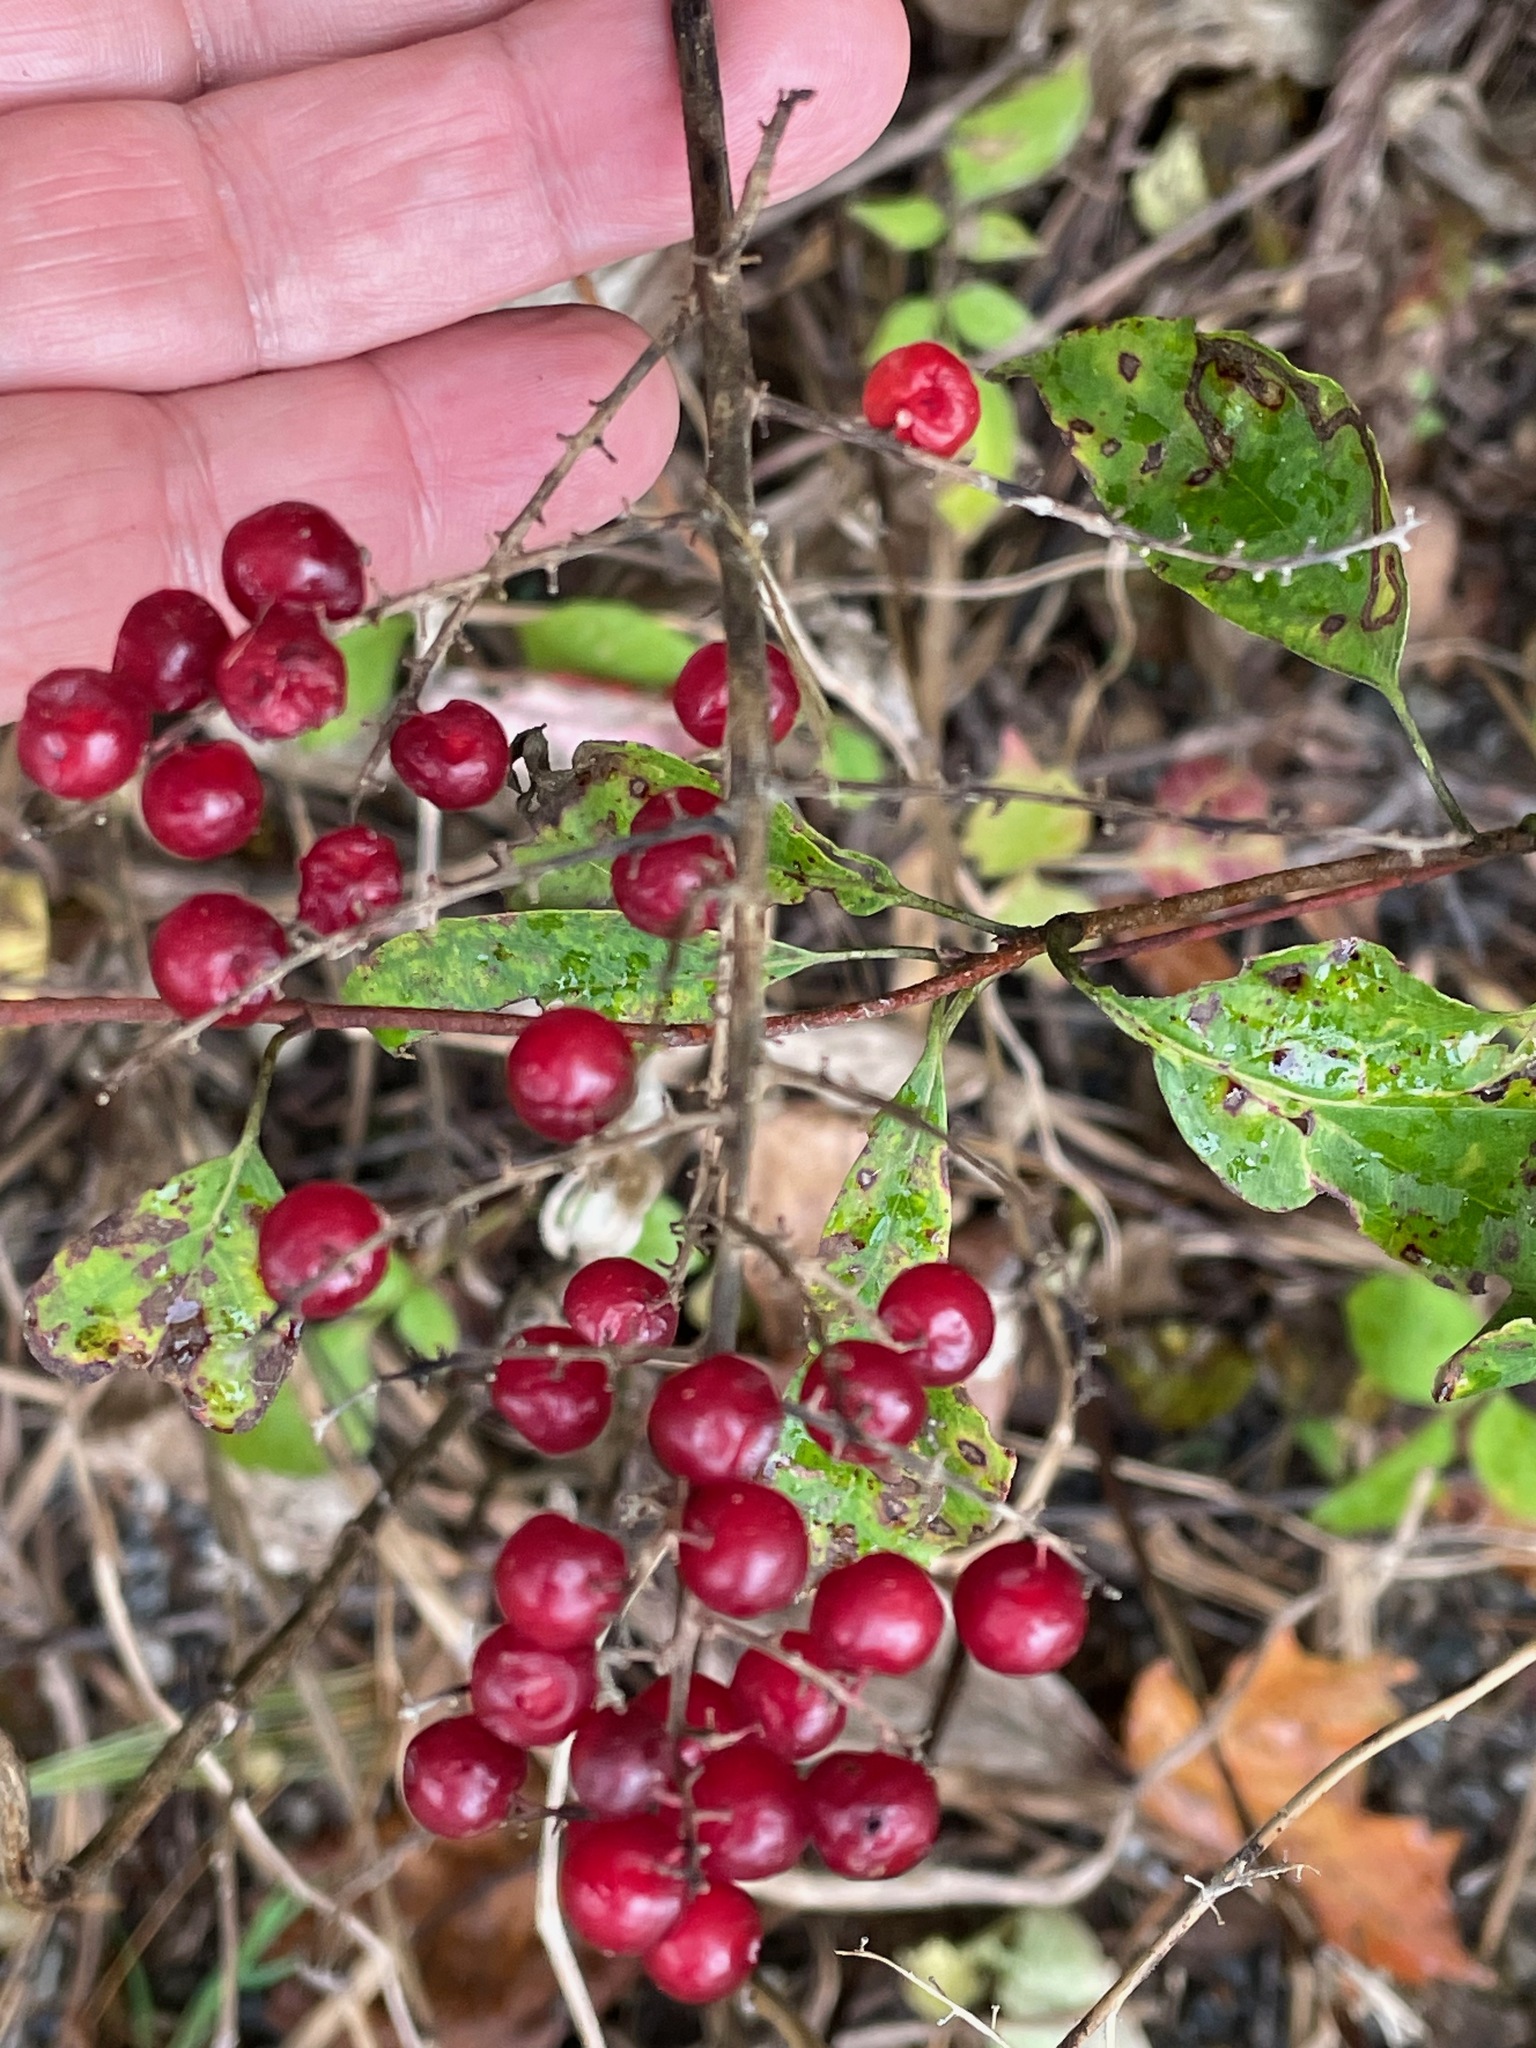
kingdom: Plantae
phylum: Tracheophyta
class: Liliopsida
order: Asparagales
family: Asparagaceae
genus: Maianthemum
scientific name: Maianthemum racemosum
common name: False spikenard
